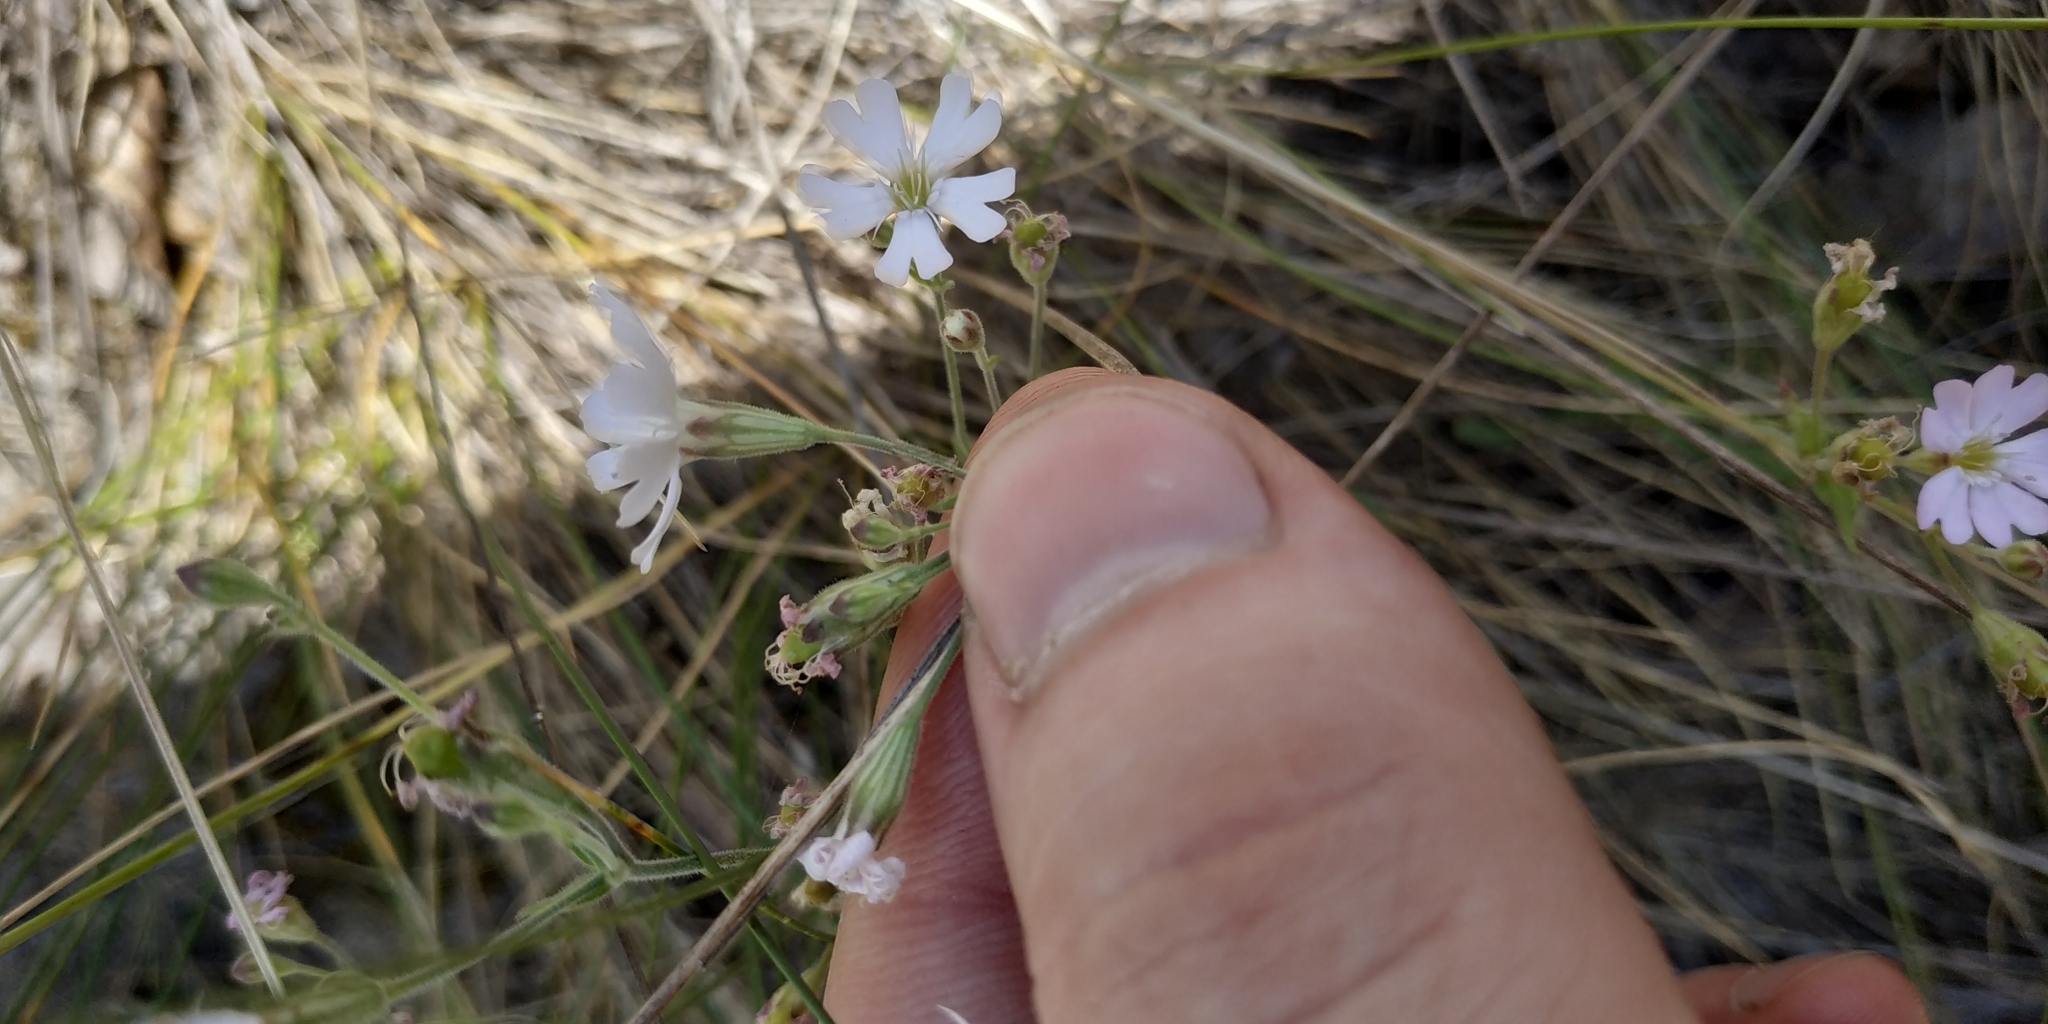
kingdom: Plantae
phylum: Tracheophyta
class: Magnoliopsida
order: Caryophyllales
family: Caryophyllaceae
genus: Silene
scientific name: Silene orientalimongolica
